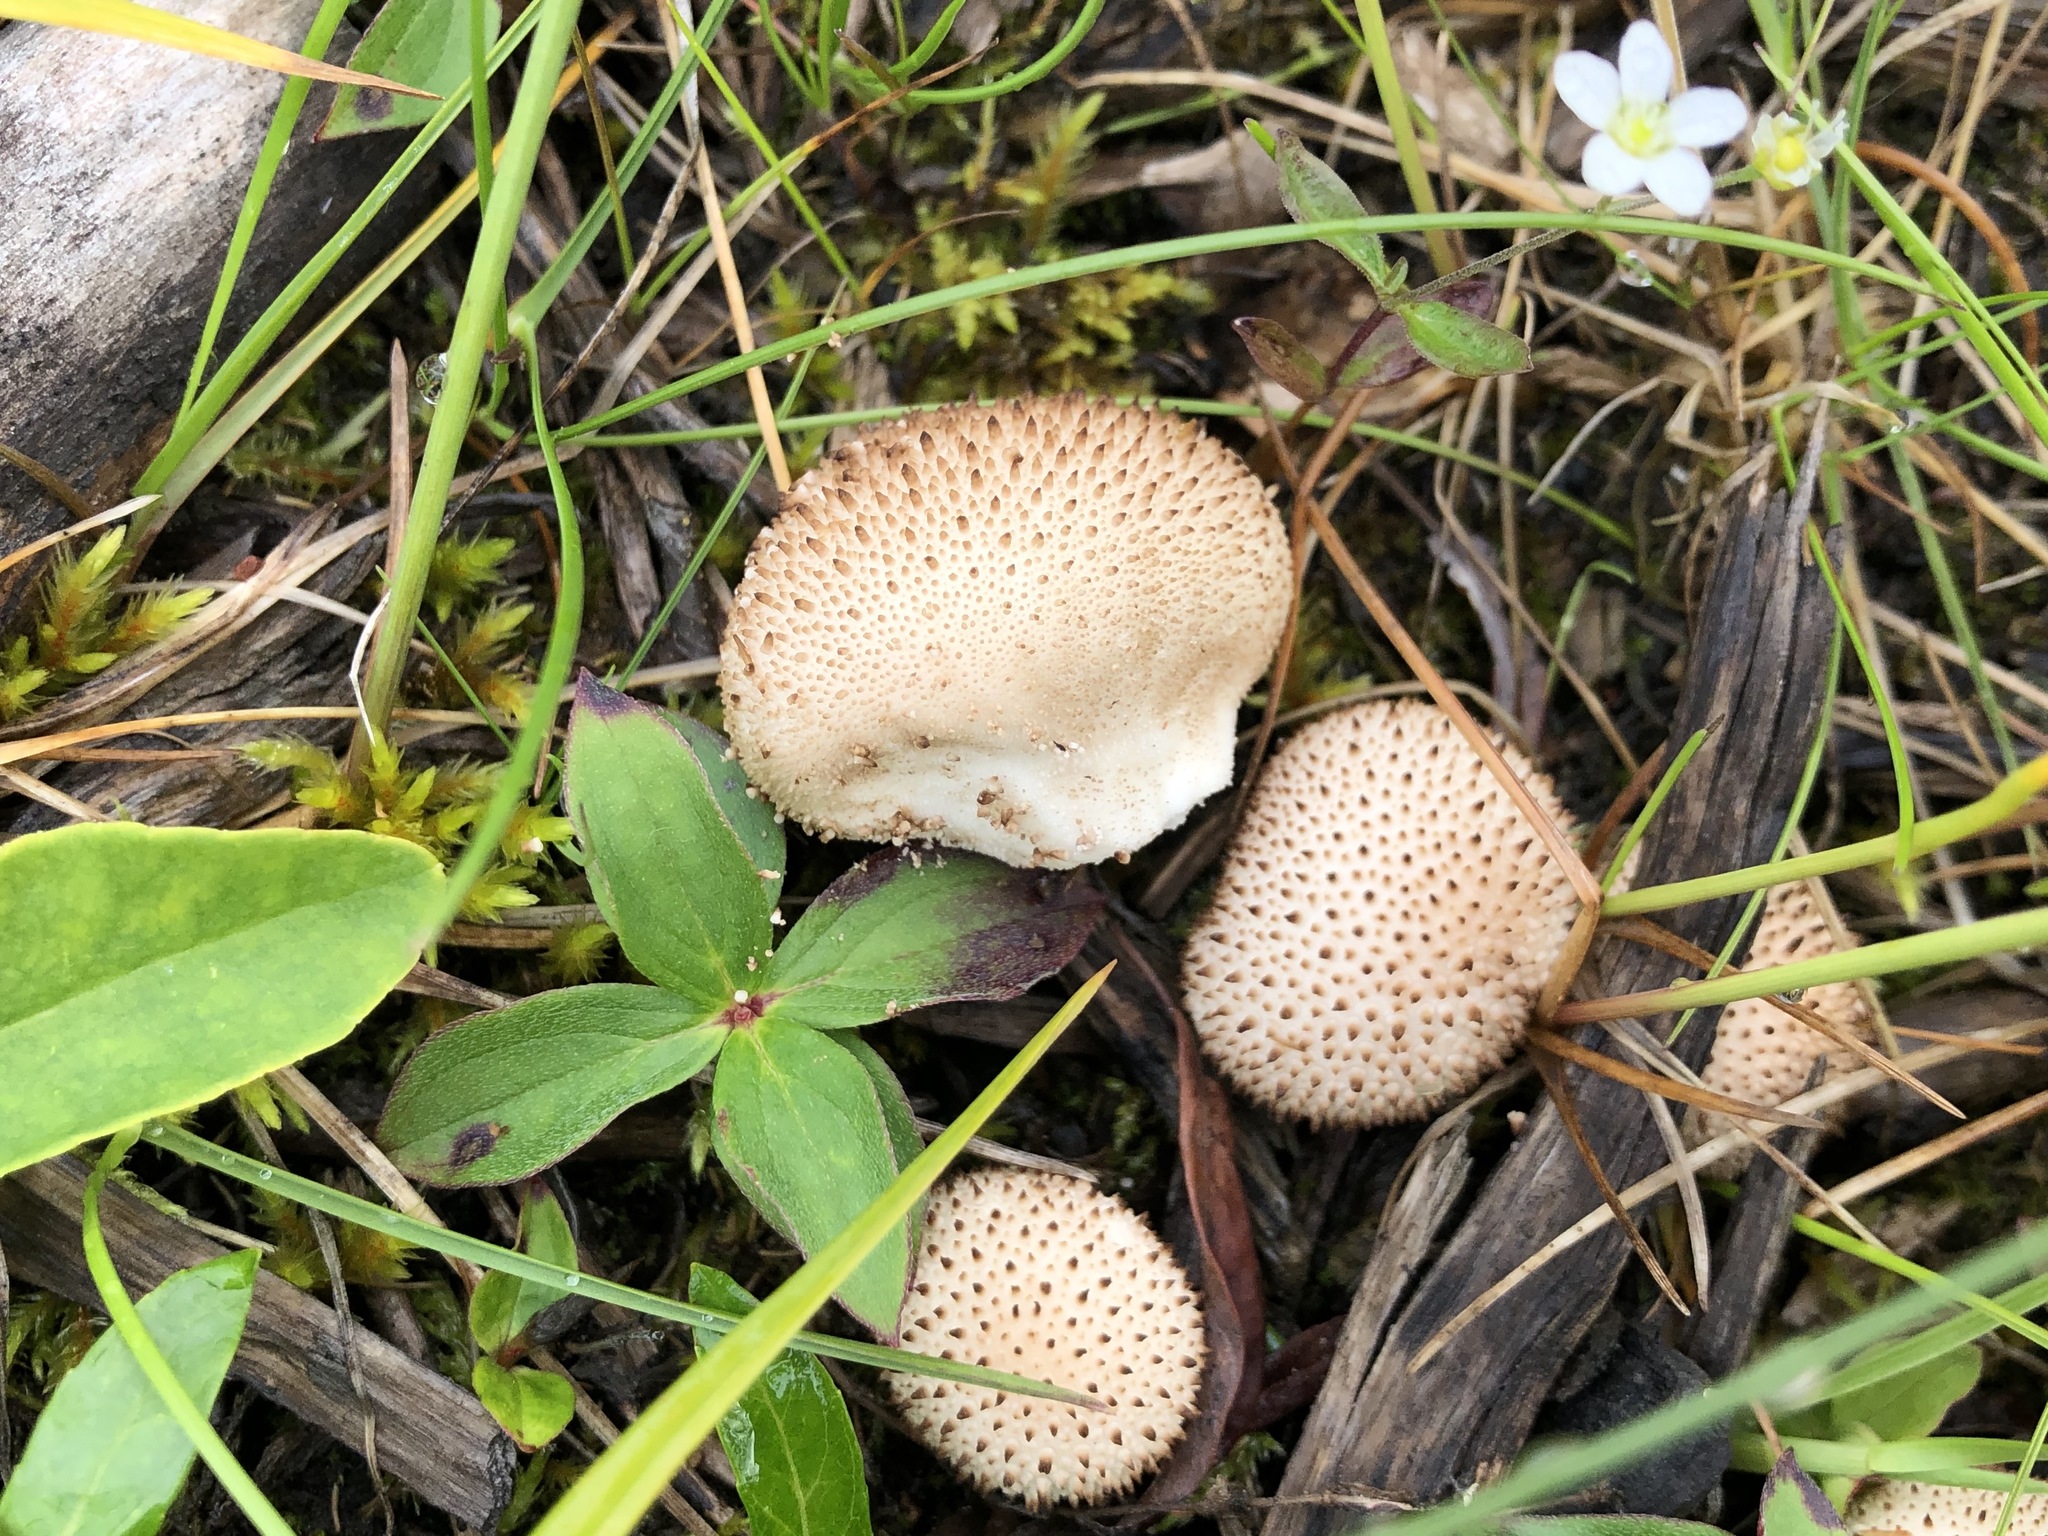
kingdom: Fungi
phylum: Basidiomycota
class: Agaricomycetes
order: Agaricales
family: Lycoperdaceae
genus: Lycoperdon
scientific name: Lycoperdon perlatum
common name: Common puffball
